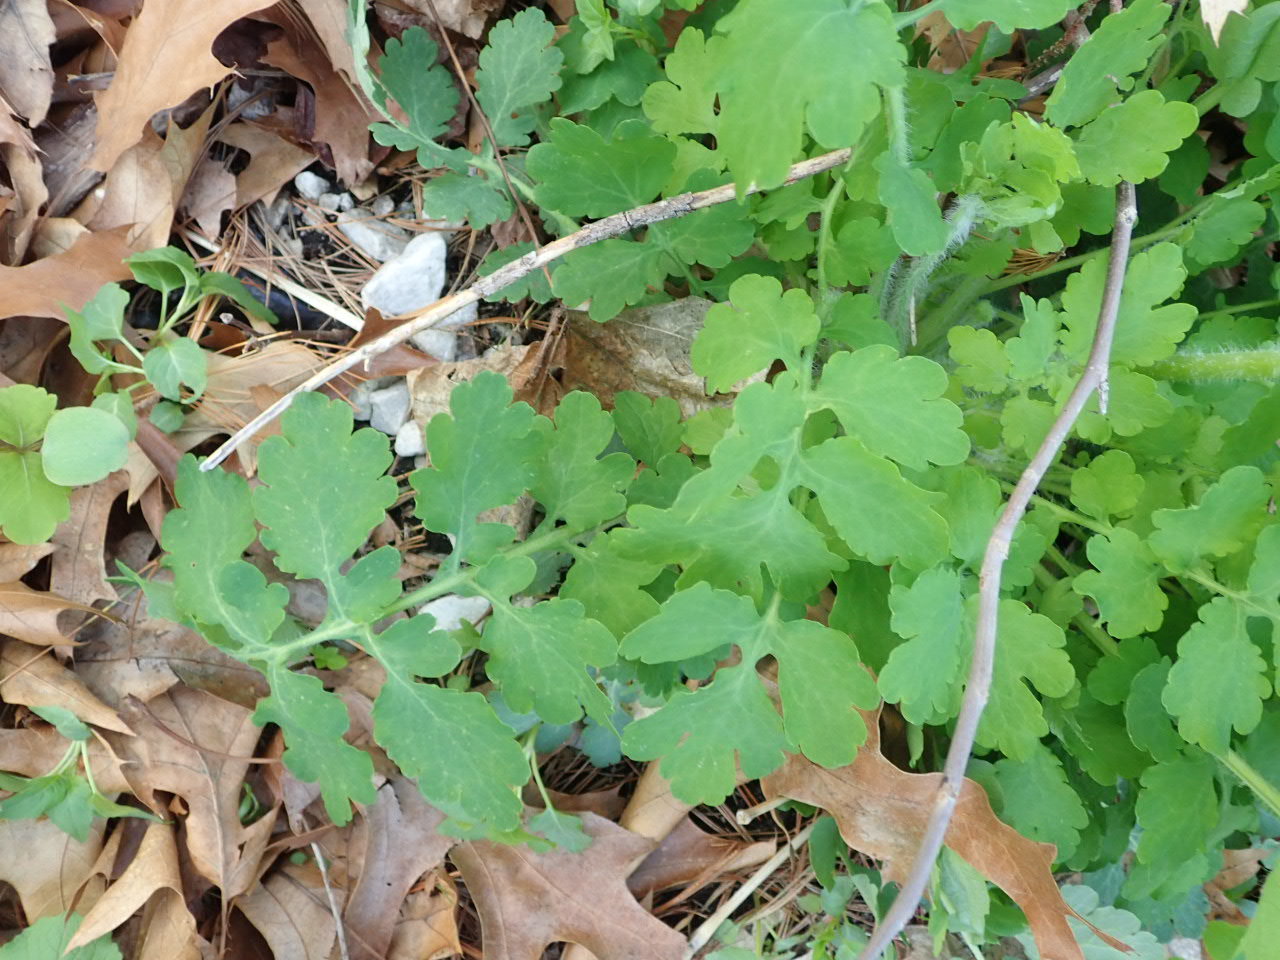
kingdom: Plantae
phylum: Tracheophyta
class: Magnoliopsida
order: Ranunculales
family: Papaveraceae
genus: Chelidonium
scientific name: Chelidonium majus
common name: Greater celandine
